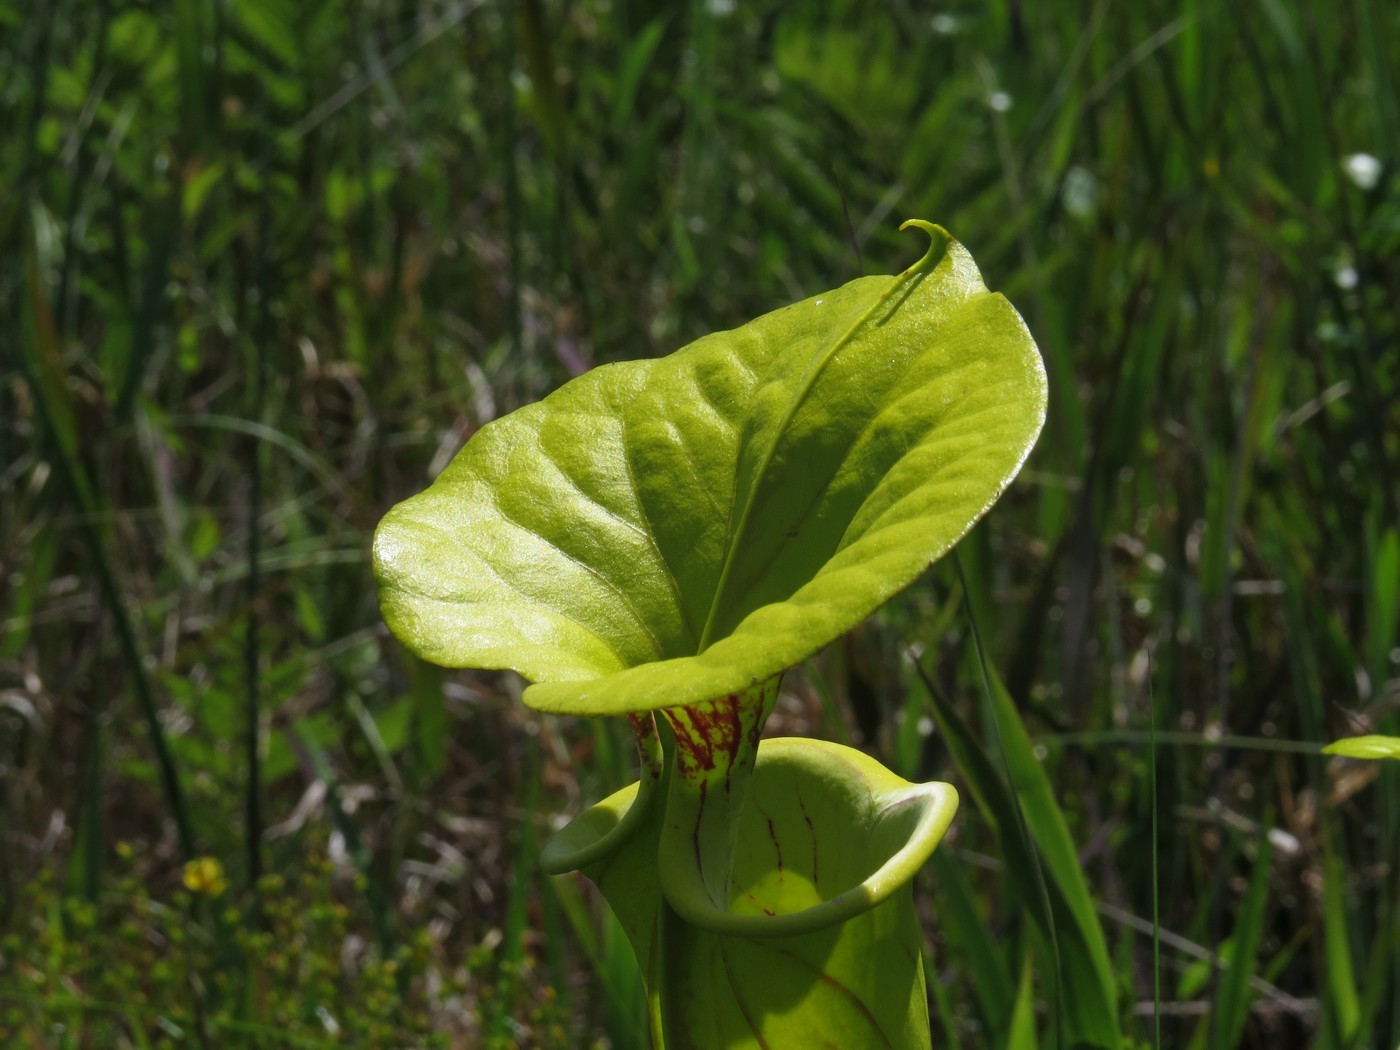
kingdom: Plantae
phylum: Tracheophyta
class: Magnoliopsida
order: Ericales
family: Sarraceniaceae
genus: Sarracenia
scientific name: Sarracenia flava
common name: Trumpets
